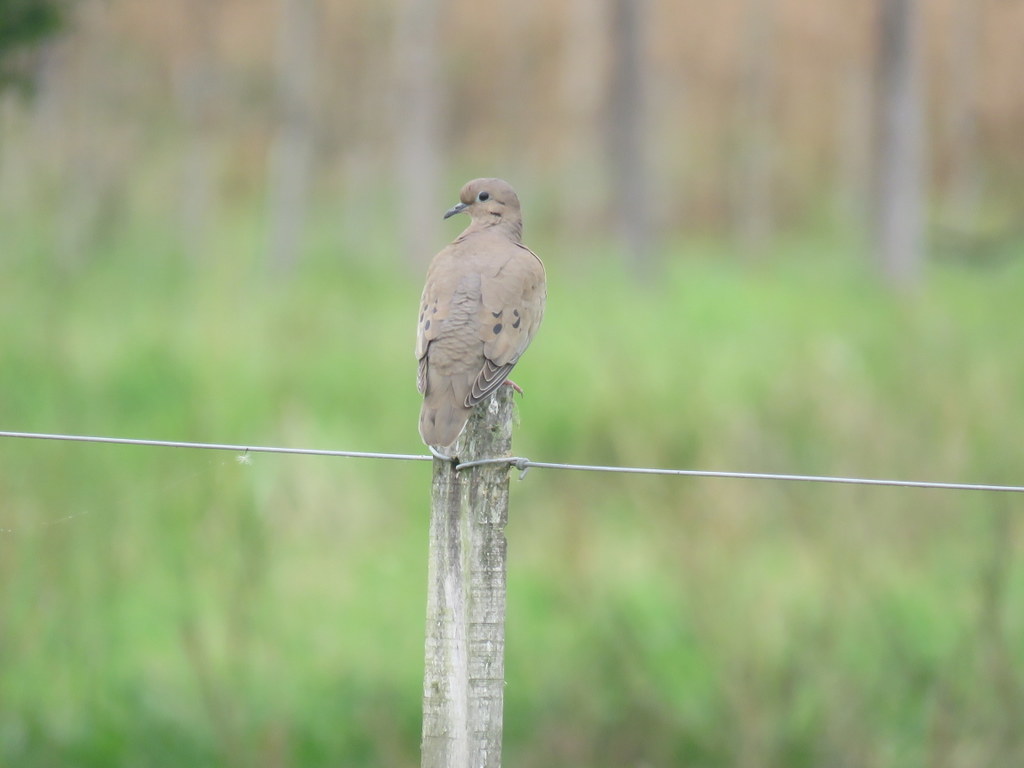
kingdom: Animalia
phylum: Chordata
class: Aves
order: Columbiformes
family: Columbidae
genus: Zenaida
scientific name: Zenaida auriculata
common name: Eared dove
